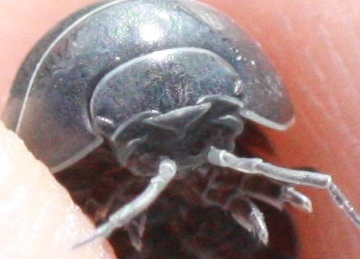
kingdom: Animalia
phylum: Arthropoda
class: Malacostraca
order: Isopoda
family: Armadillidiidae
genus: Armadillidium
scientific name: Armadillidium vulgare
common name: Common pill woodlouse
